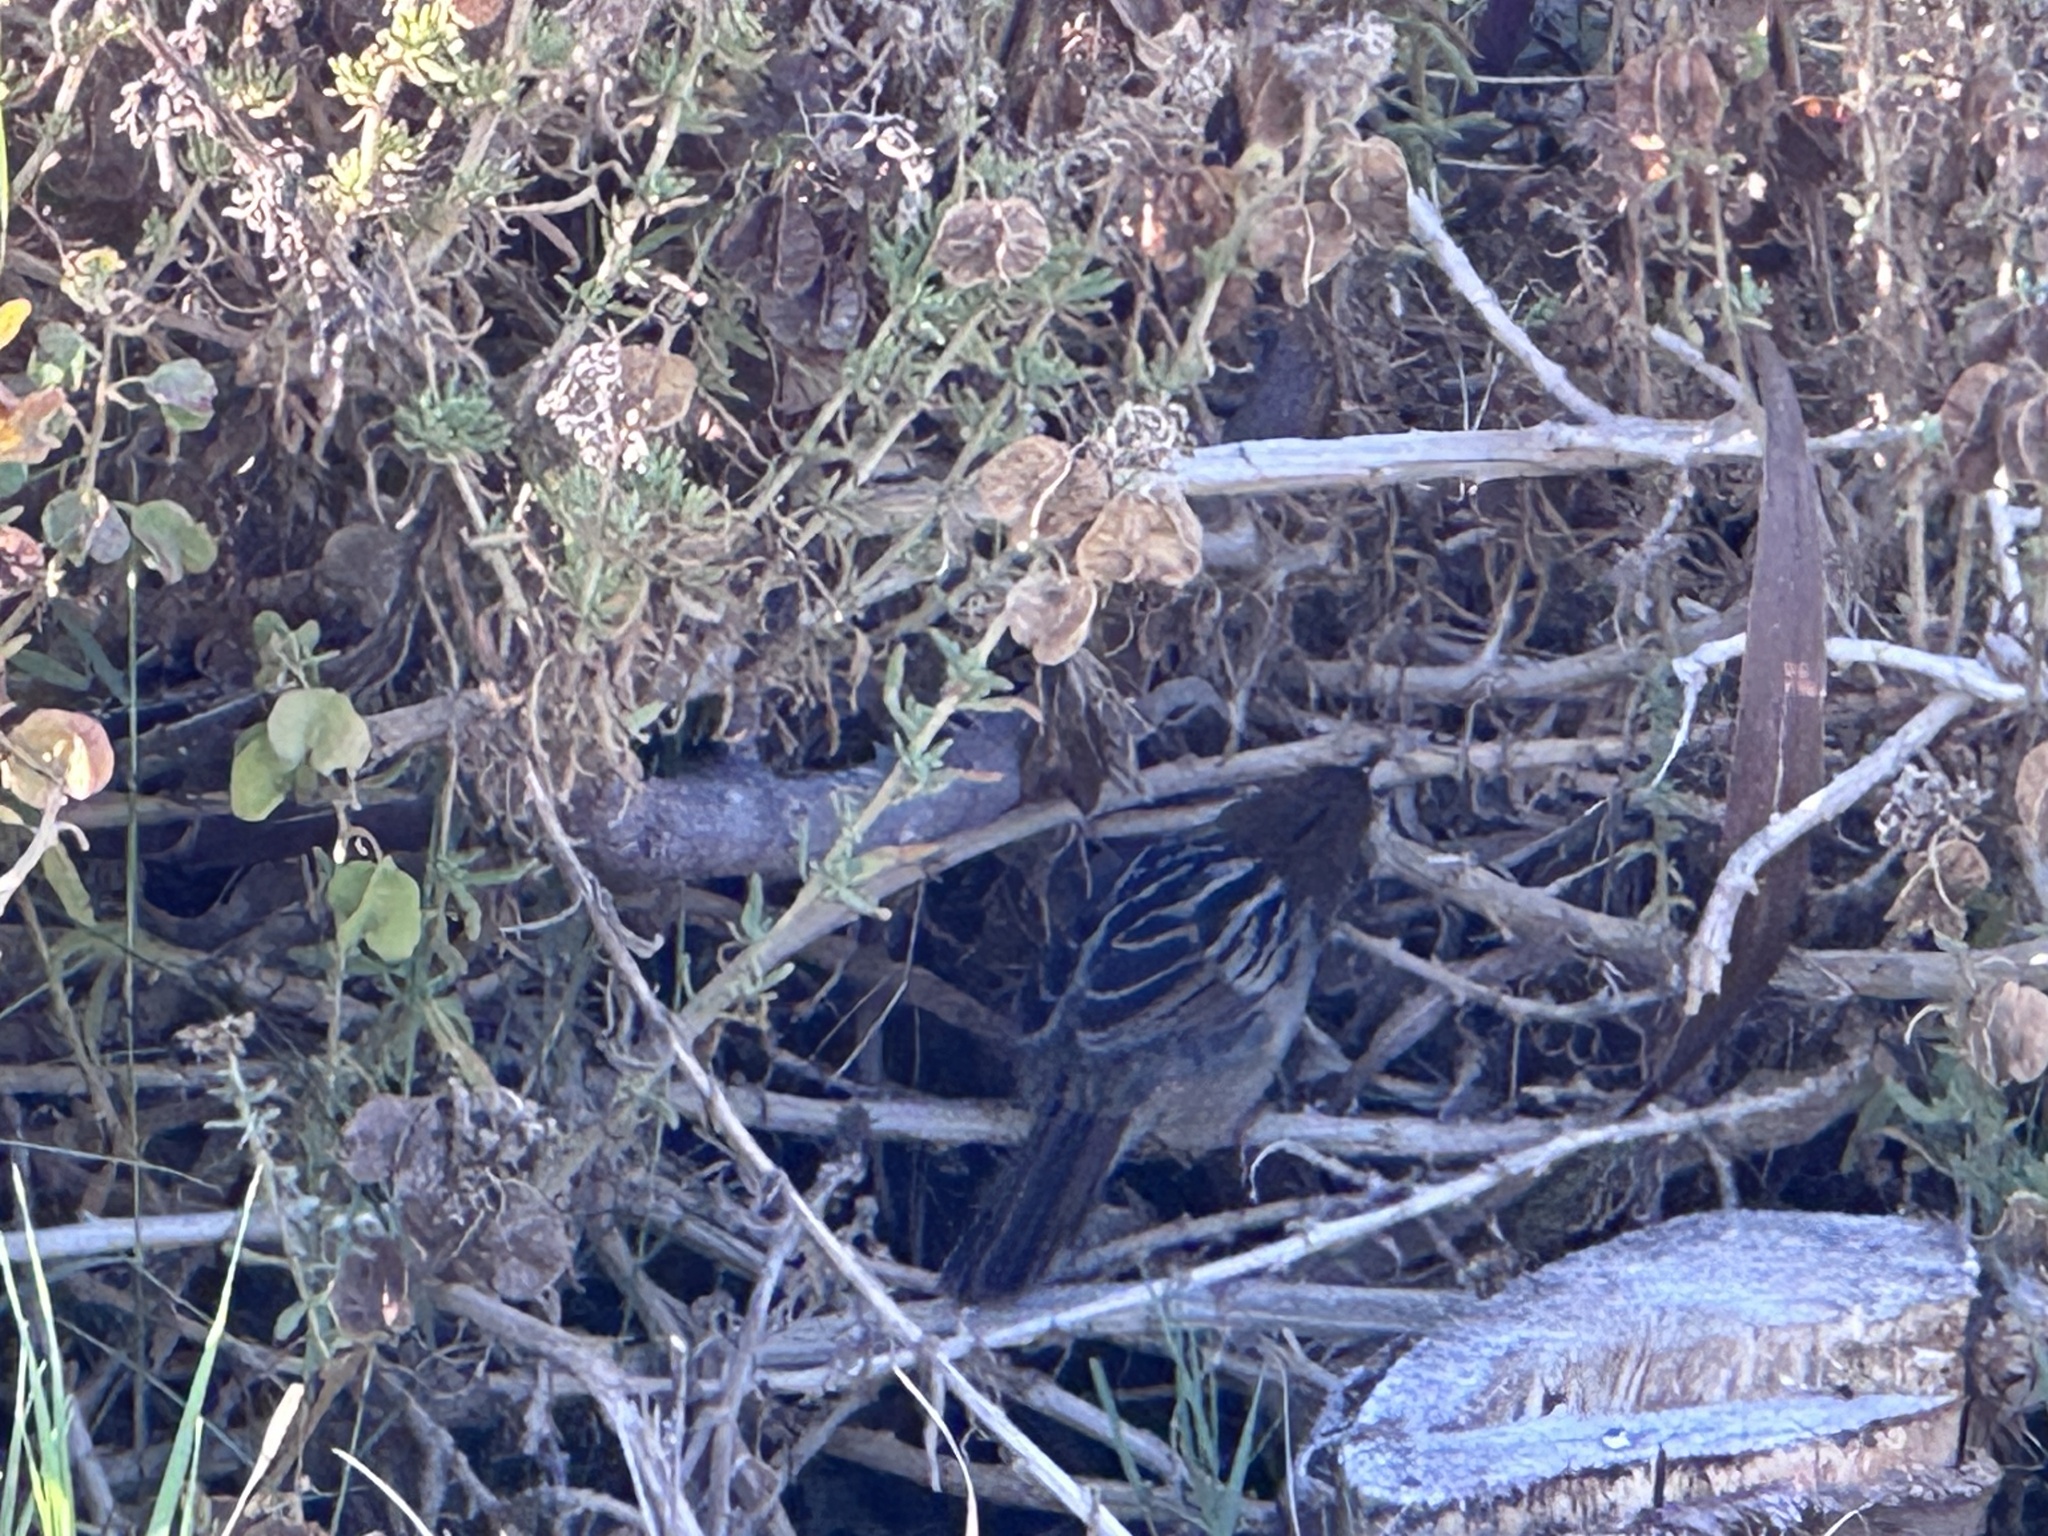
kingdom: Animalia
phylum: Chordata
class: Aves
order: Passeriformes
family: Cisticolidae
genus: Cisticola
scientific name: Cisticola tinniens
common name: Levaillant's cisticola
